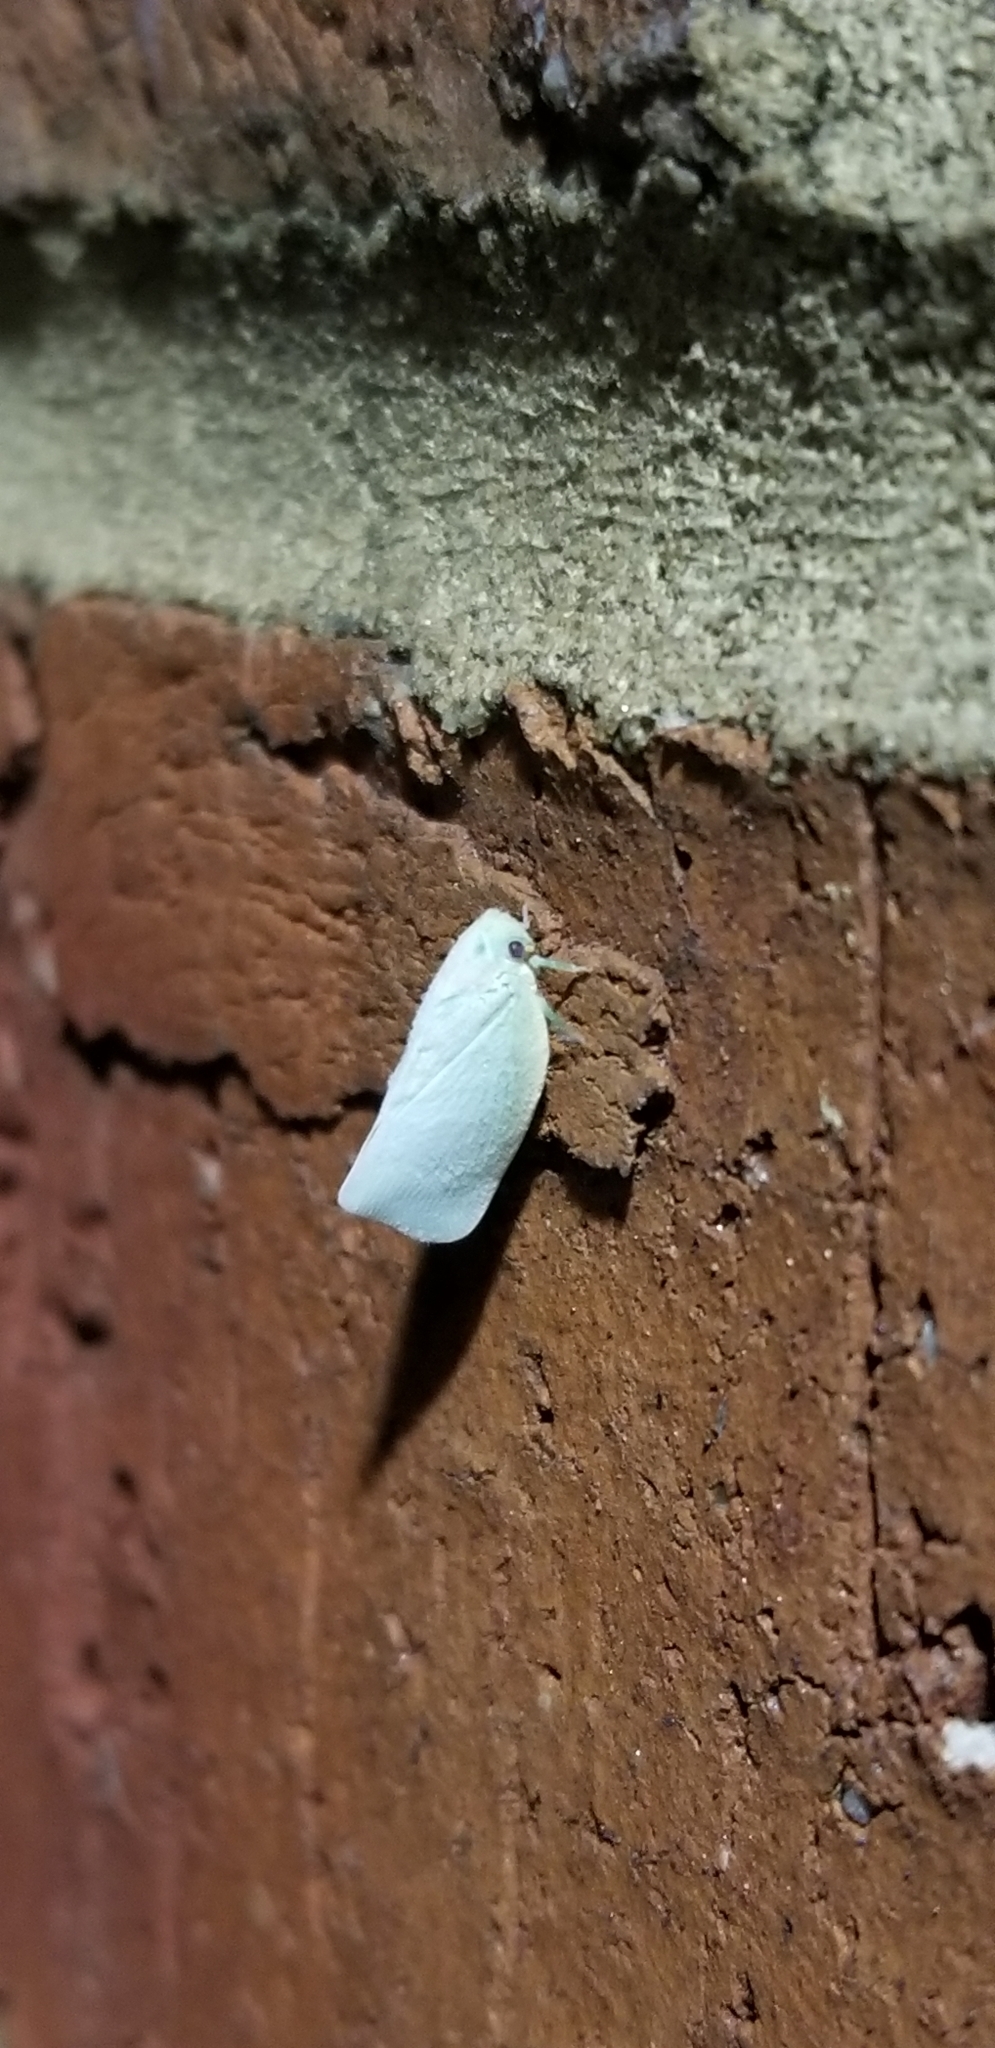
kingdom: Animalia
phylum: Arthropoda
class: Insecta
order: Hemiptera
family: Flatidae
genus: Flatormenis
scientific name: Flatormenis proxima
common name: Northern flatid planthopper
